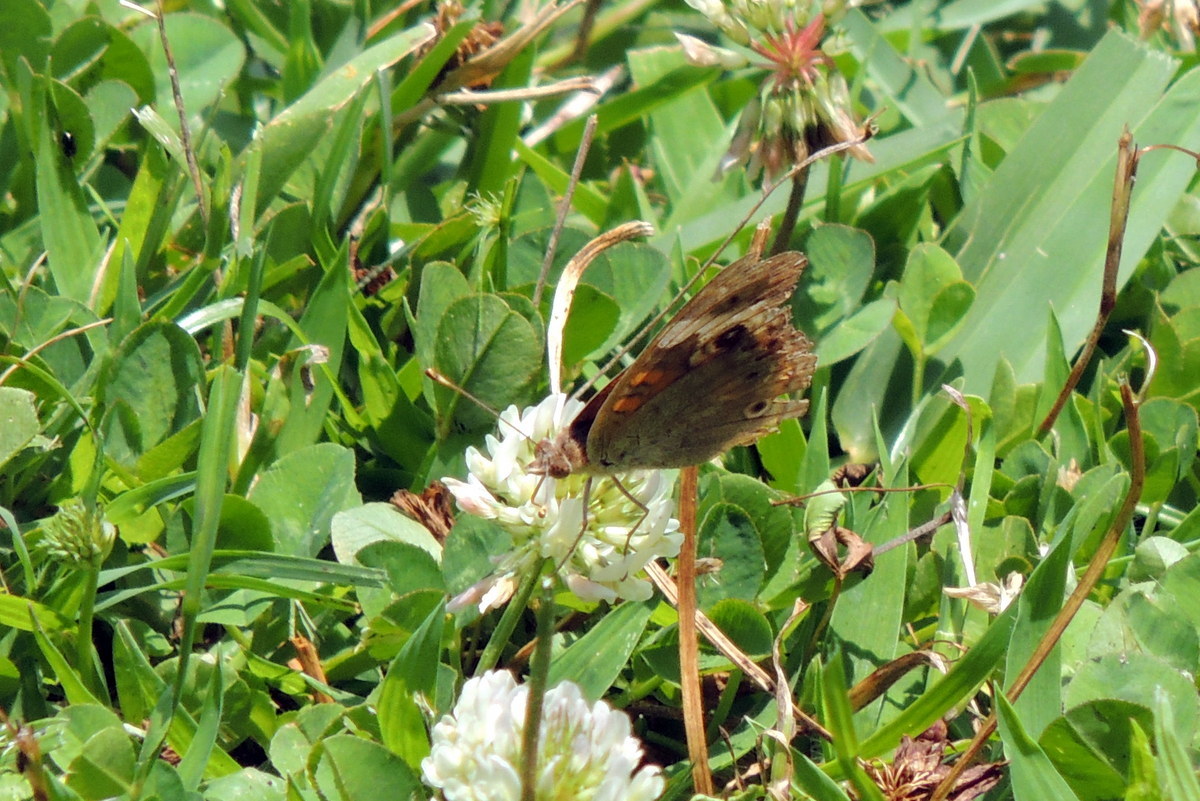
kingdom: Animalia
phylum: Arthropoda
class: Insecta
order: Lepidoptera
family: Nymphalidae
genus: Junonia
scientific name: Junonia coenia
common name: Common buckeye
